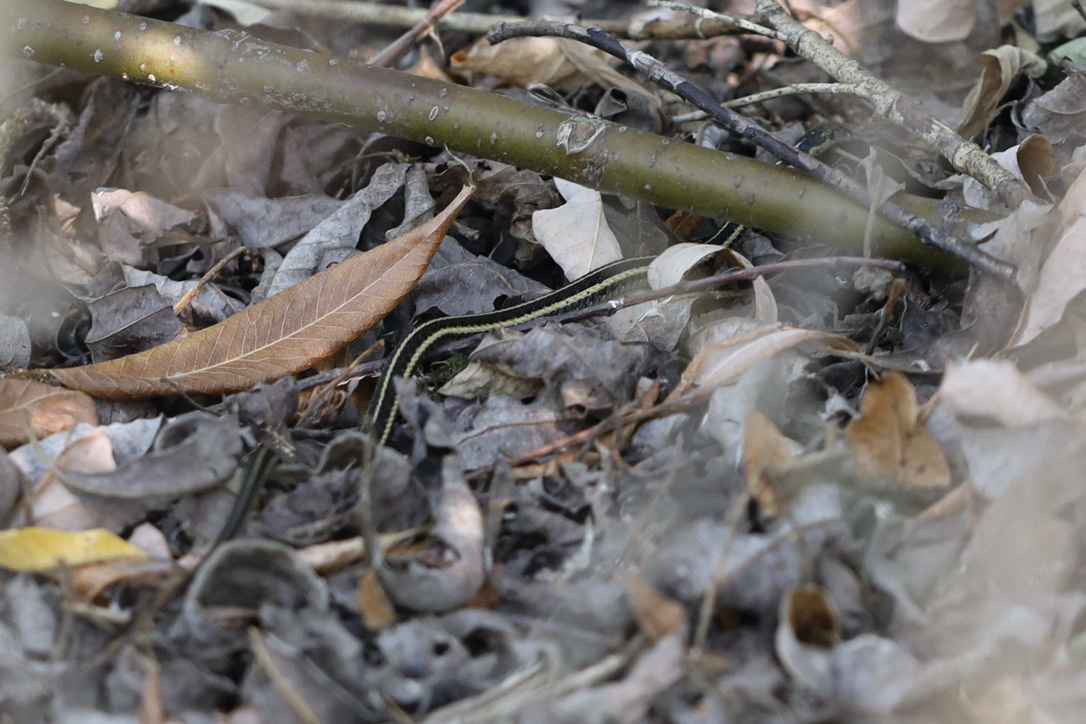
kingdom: Animalia
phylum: Chordata
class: Squamata
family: Colubridae
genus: Thamnophis
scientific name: Thamnophis ordinoides
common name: Northwestern garter snake
